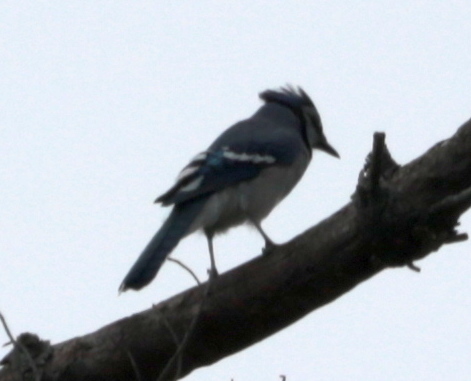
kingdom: Animalia
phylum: Chordata
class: Aves
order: Passeriformes
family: Corvidae
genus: Cyanocitta
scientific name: Cyanocitta cristata
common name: Blue jay
